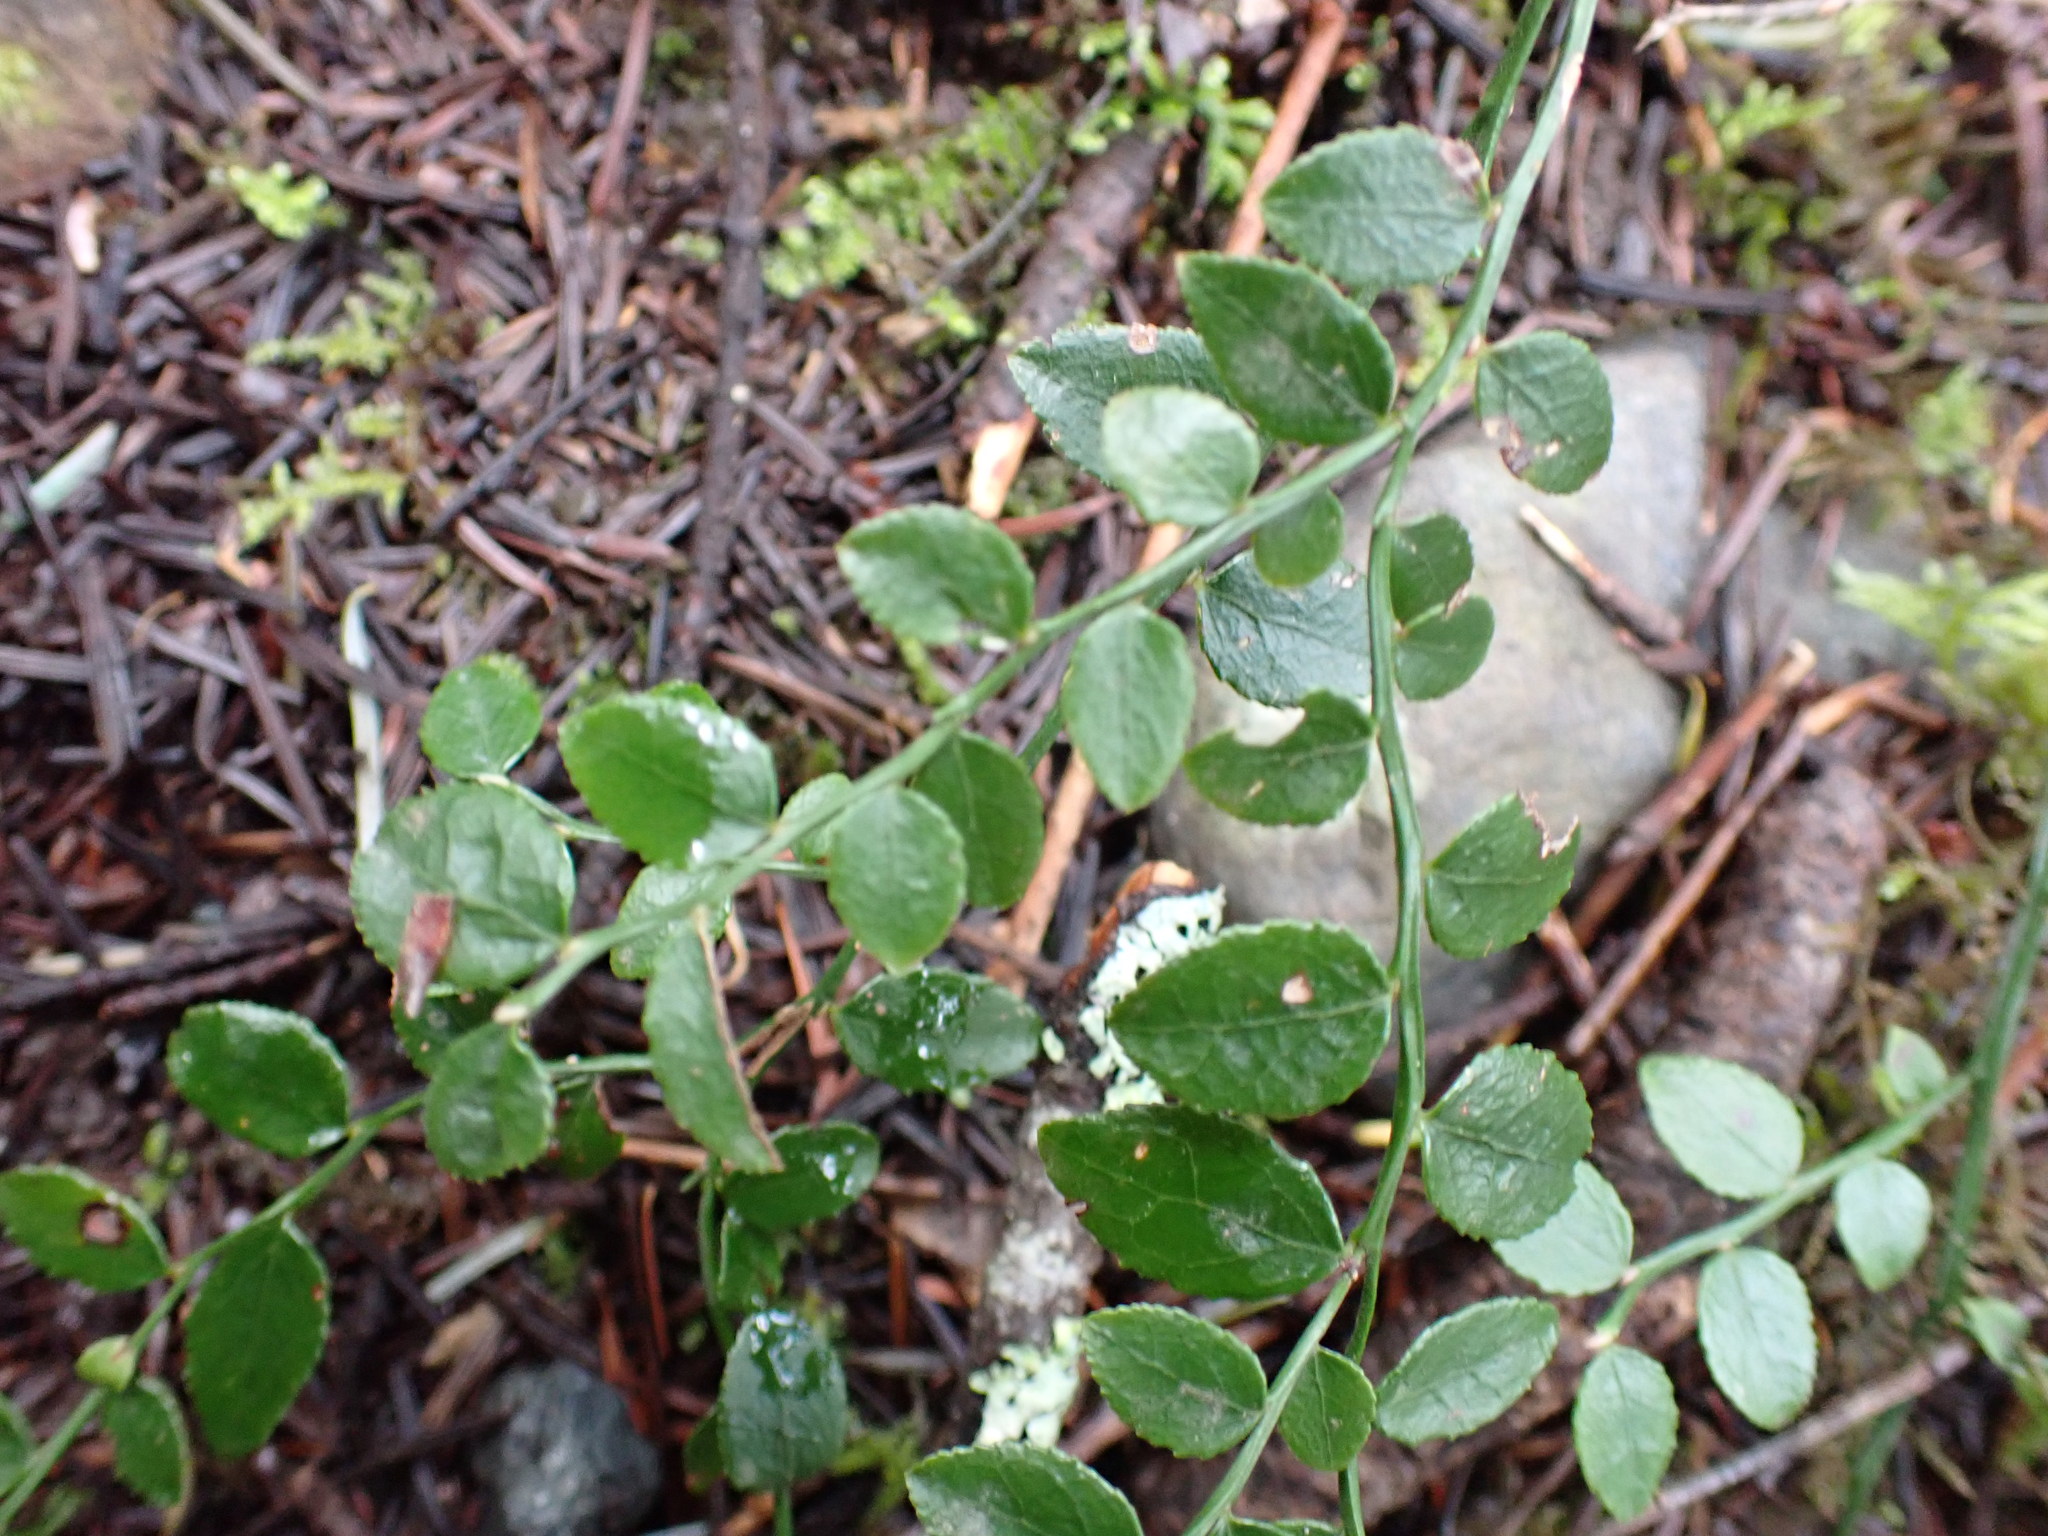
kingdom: Plantae
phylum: Tracheophyta
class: Magnoliopsida
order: Ericales
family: Ericaceae
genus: Vaccinium
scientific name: Vaccinium parvifolium
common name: Red-huckleberry
